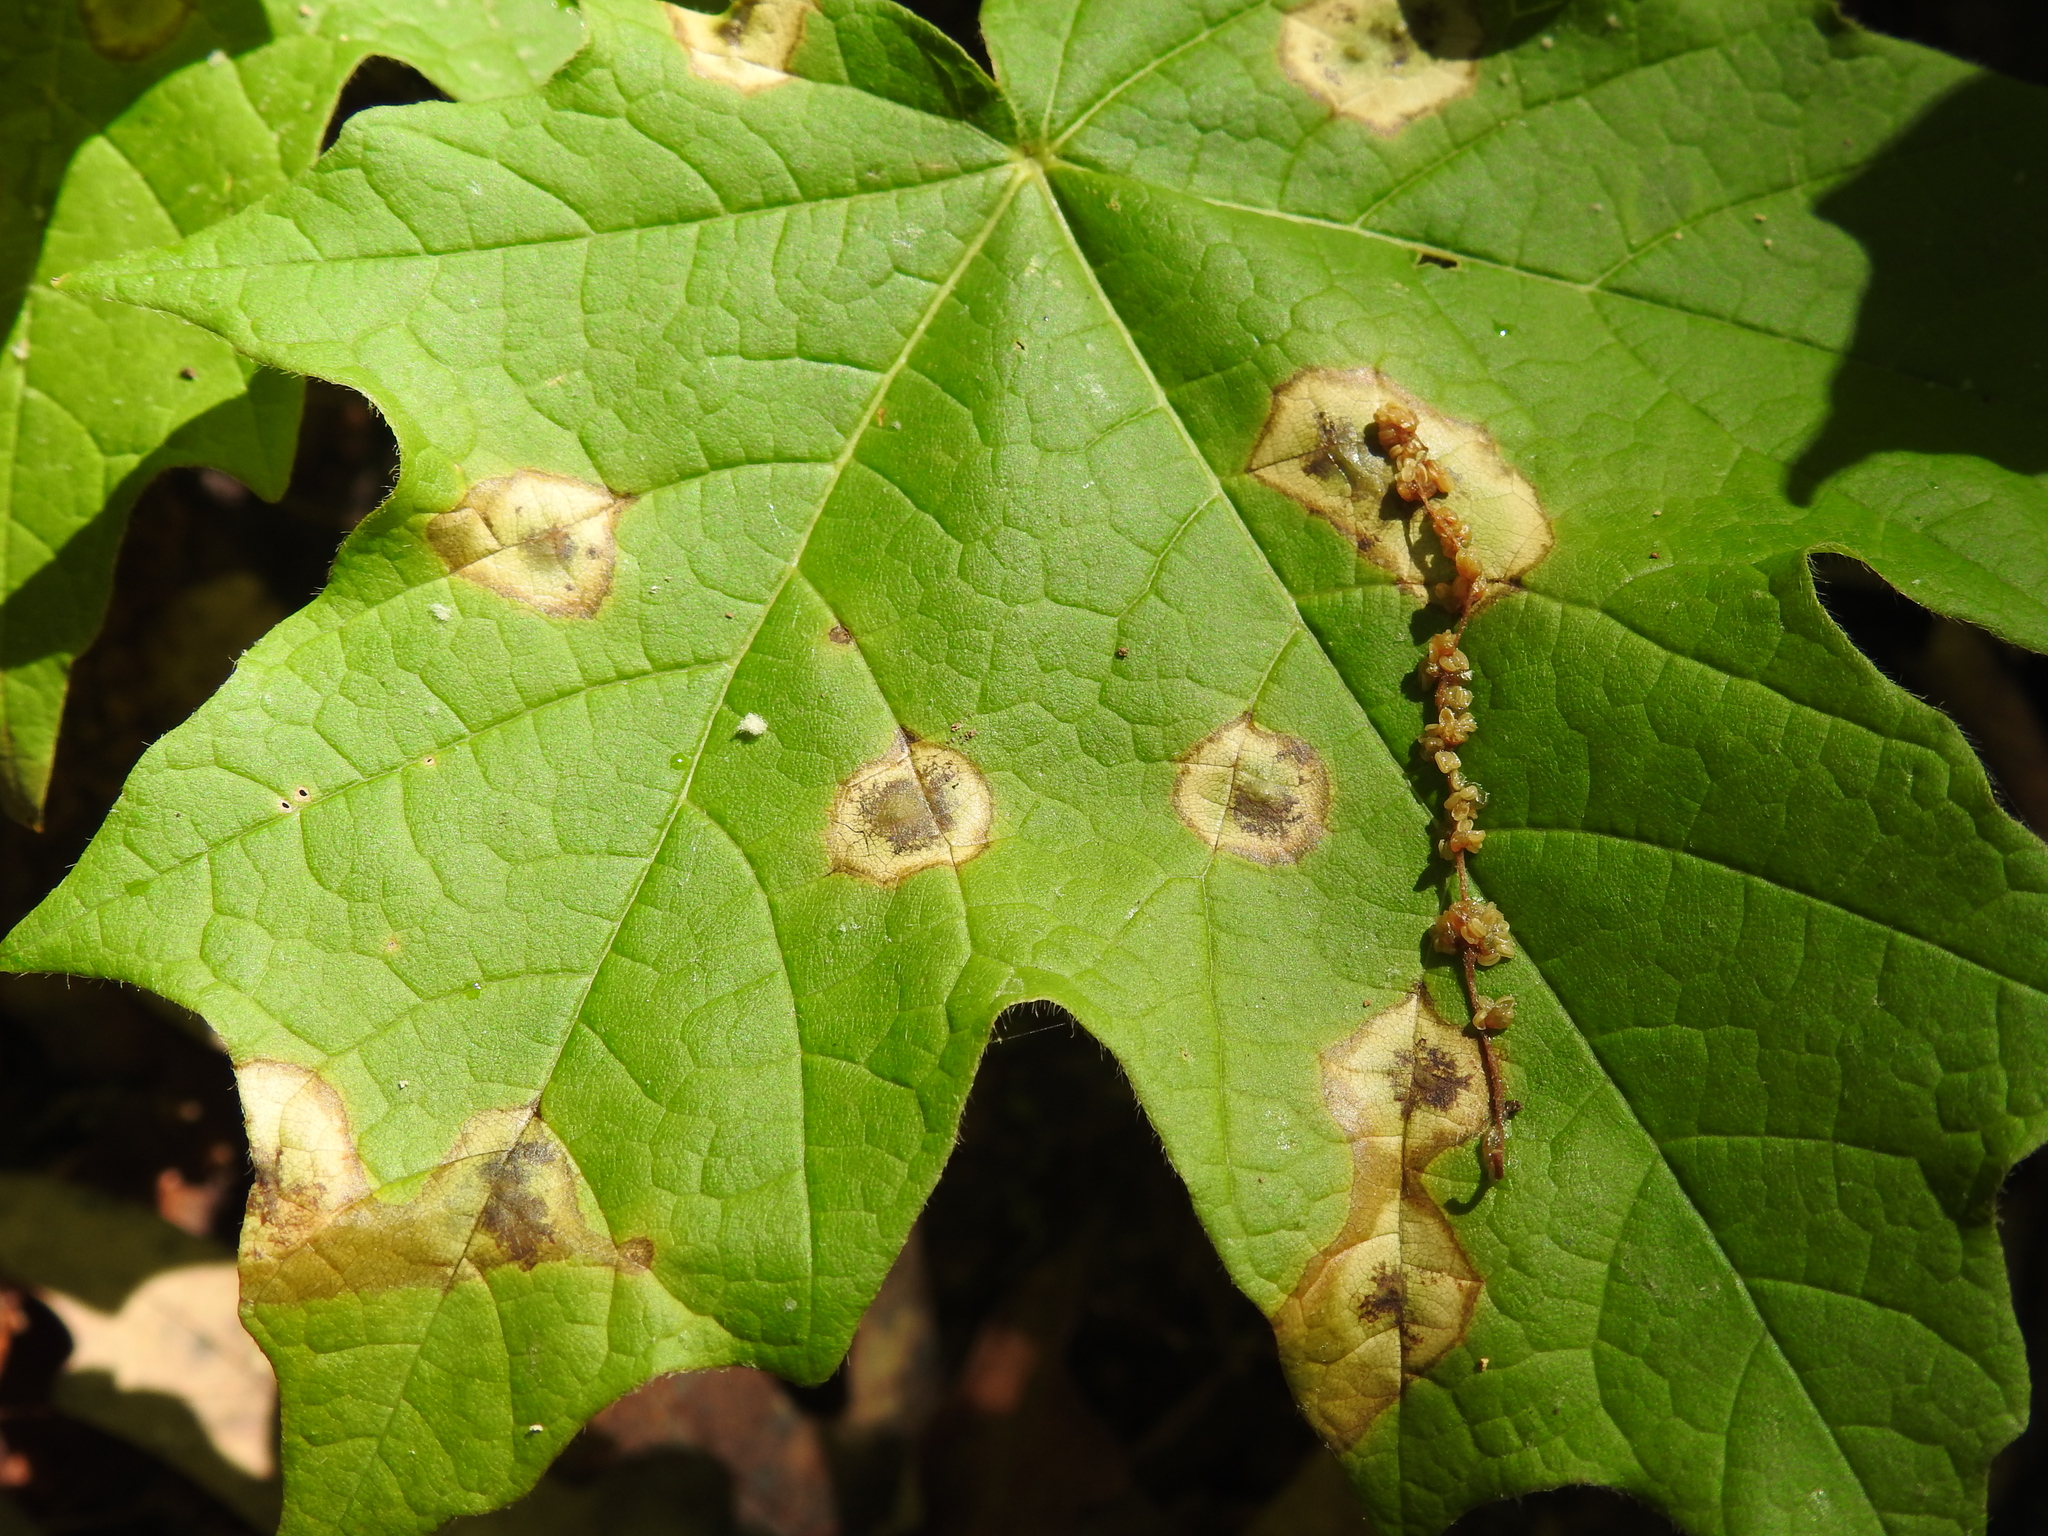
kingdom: Animalia
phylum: Arthropoda
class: Insecta
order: Diptera
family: Cecidomyiidae
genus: Acericecis
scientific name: Acericecis ocellaris
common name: Ocellate gall midge
